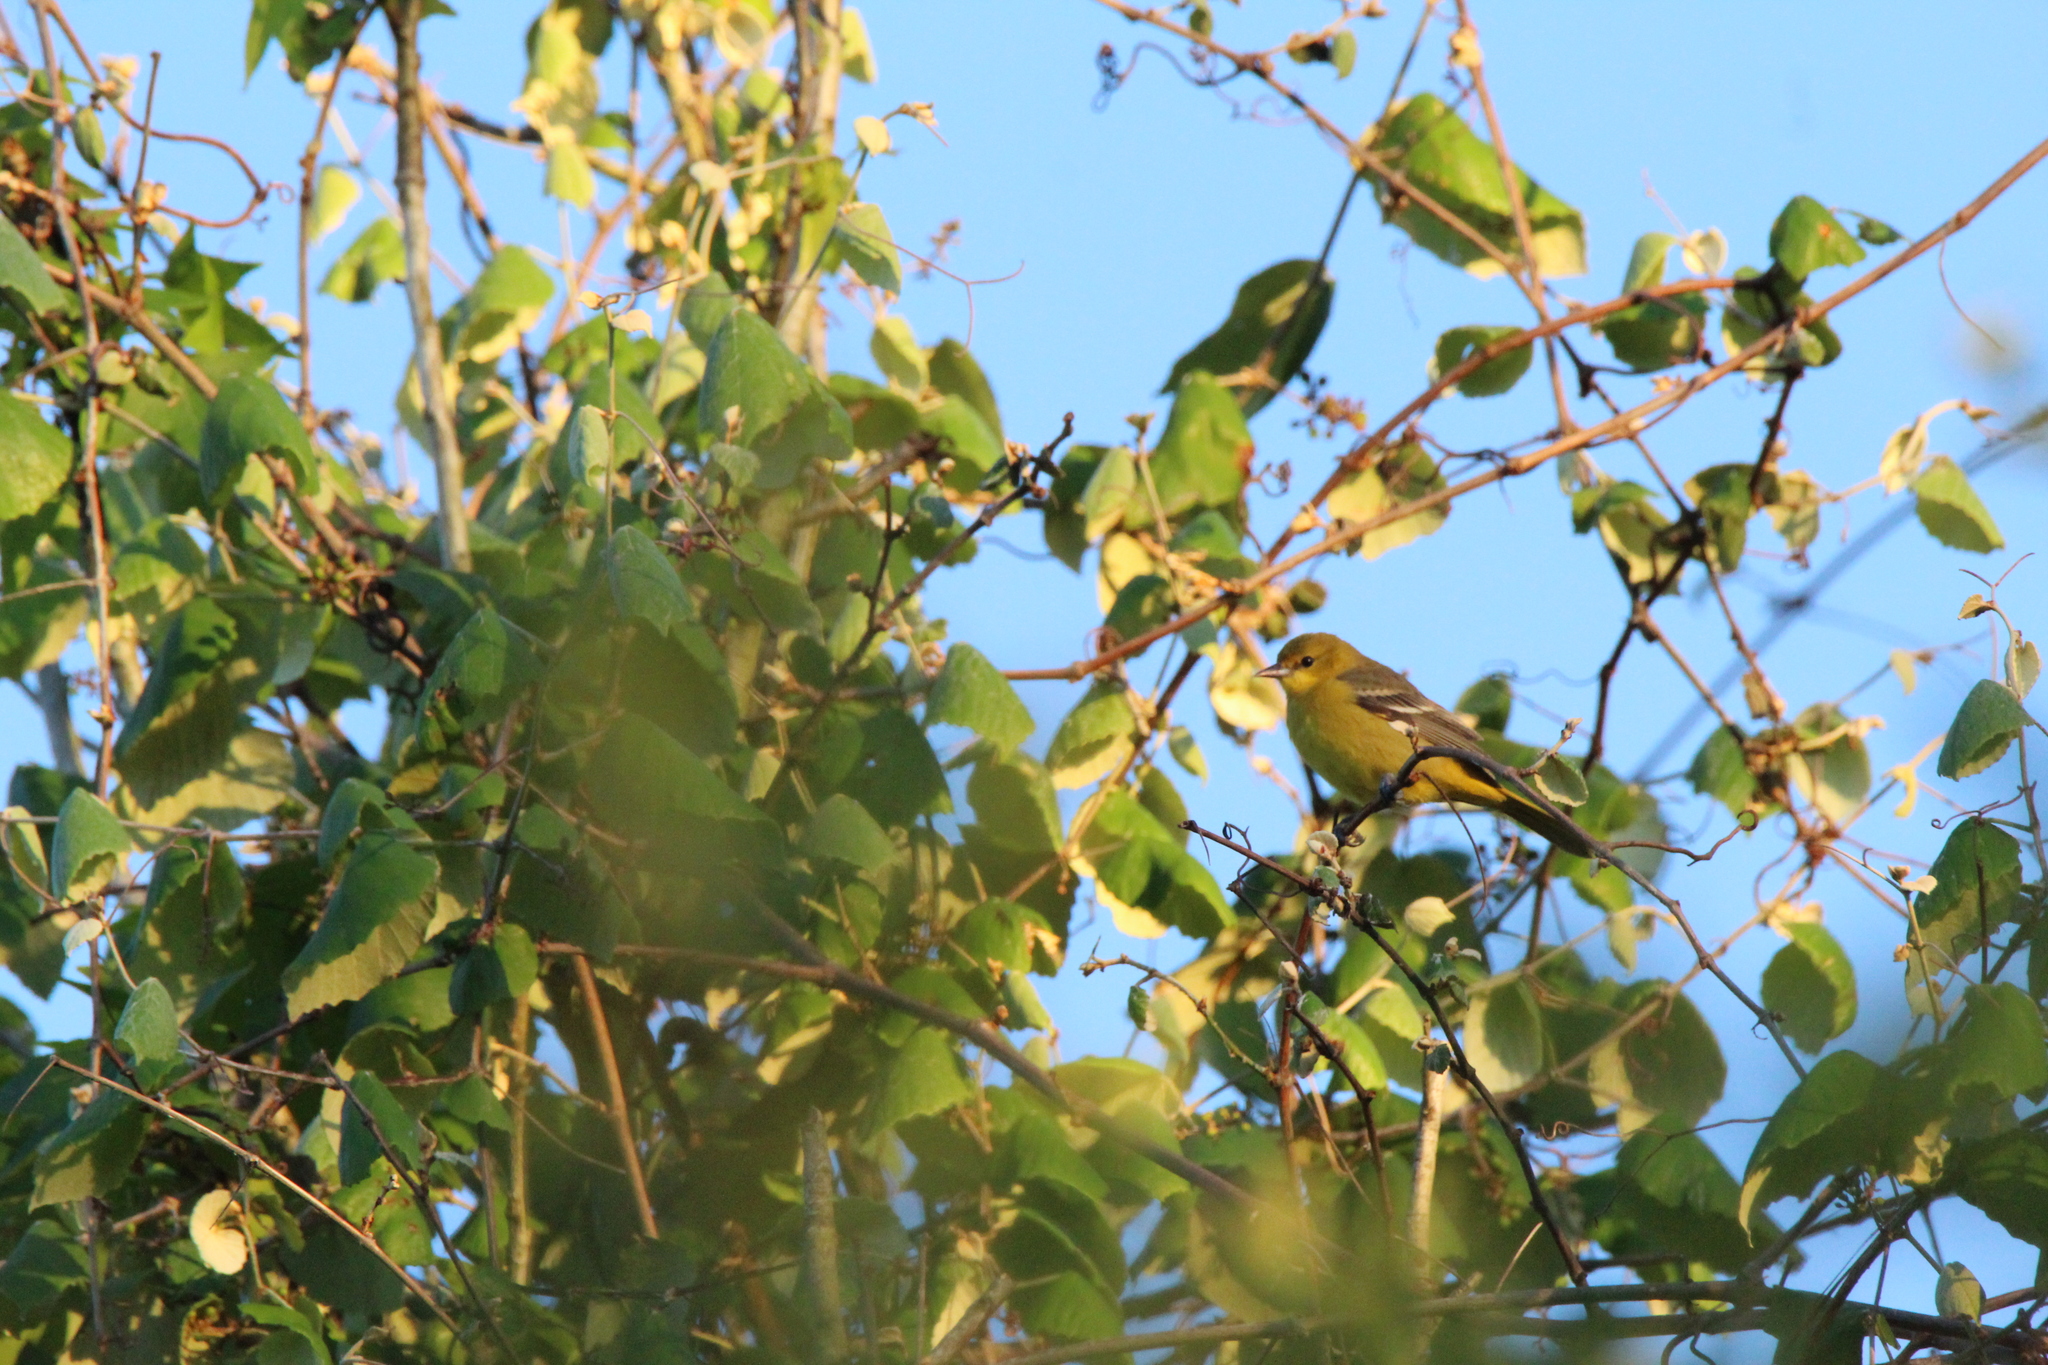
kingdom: Animalia
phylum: Chordata
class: Aves
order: Passeriformes
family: Icteridae
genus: Icterus
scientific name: Icterus spurius
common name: Orchard oriole
